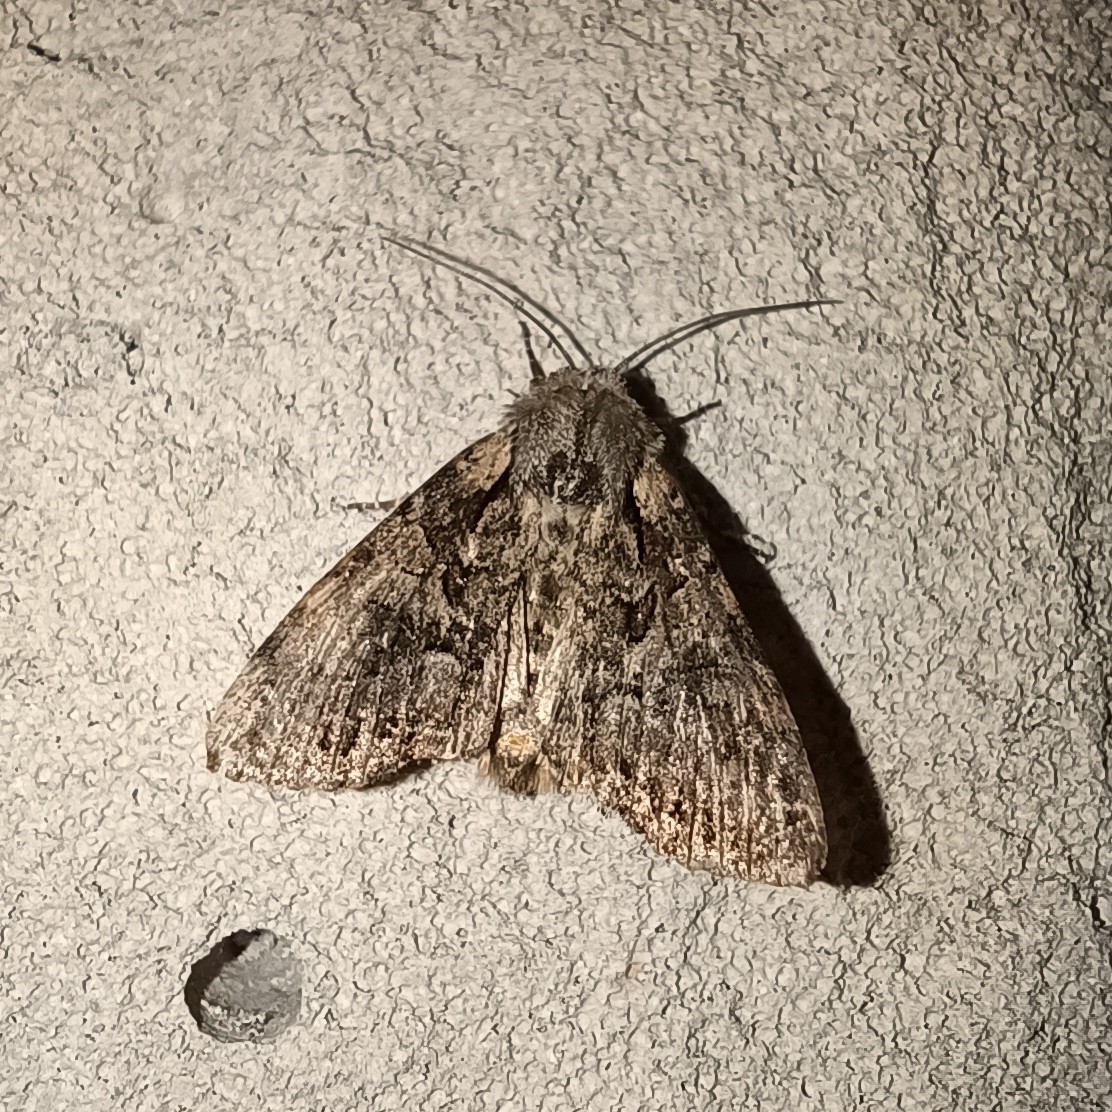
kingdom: Animalia
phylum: Arthropoda
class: Insecta
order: Lepidoptera
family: Noctuidae
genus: Lacanobia
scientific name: Lacanobia thalassina
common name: Pale-shouldered brocade
